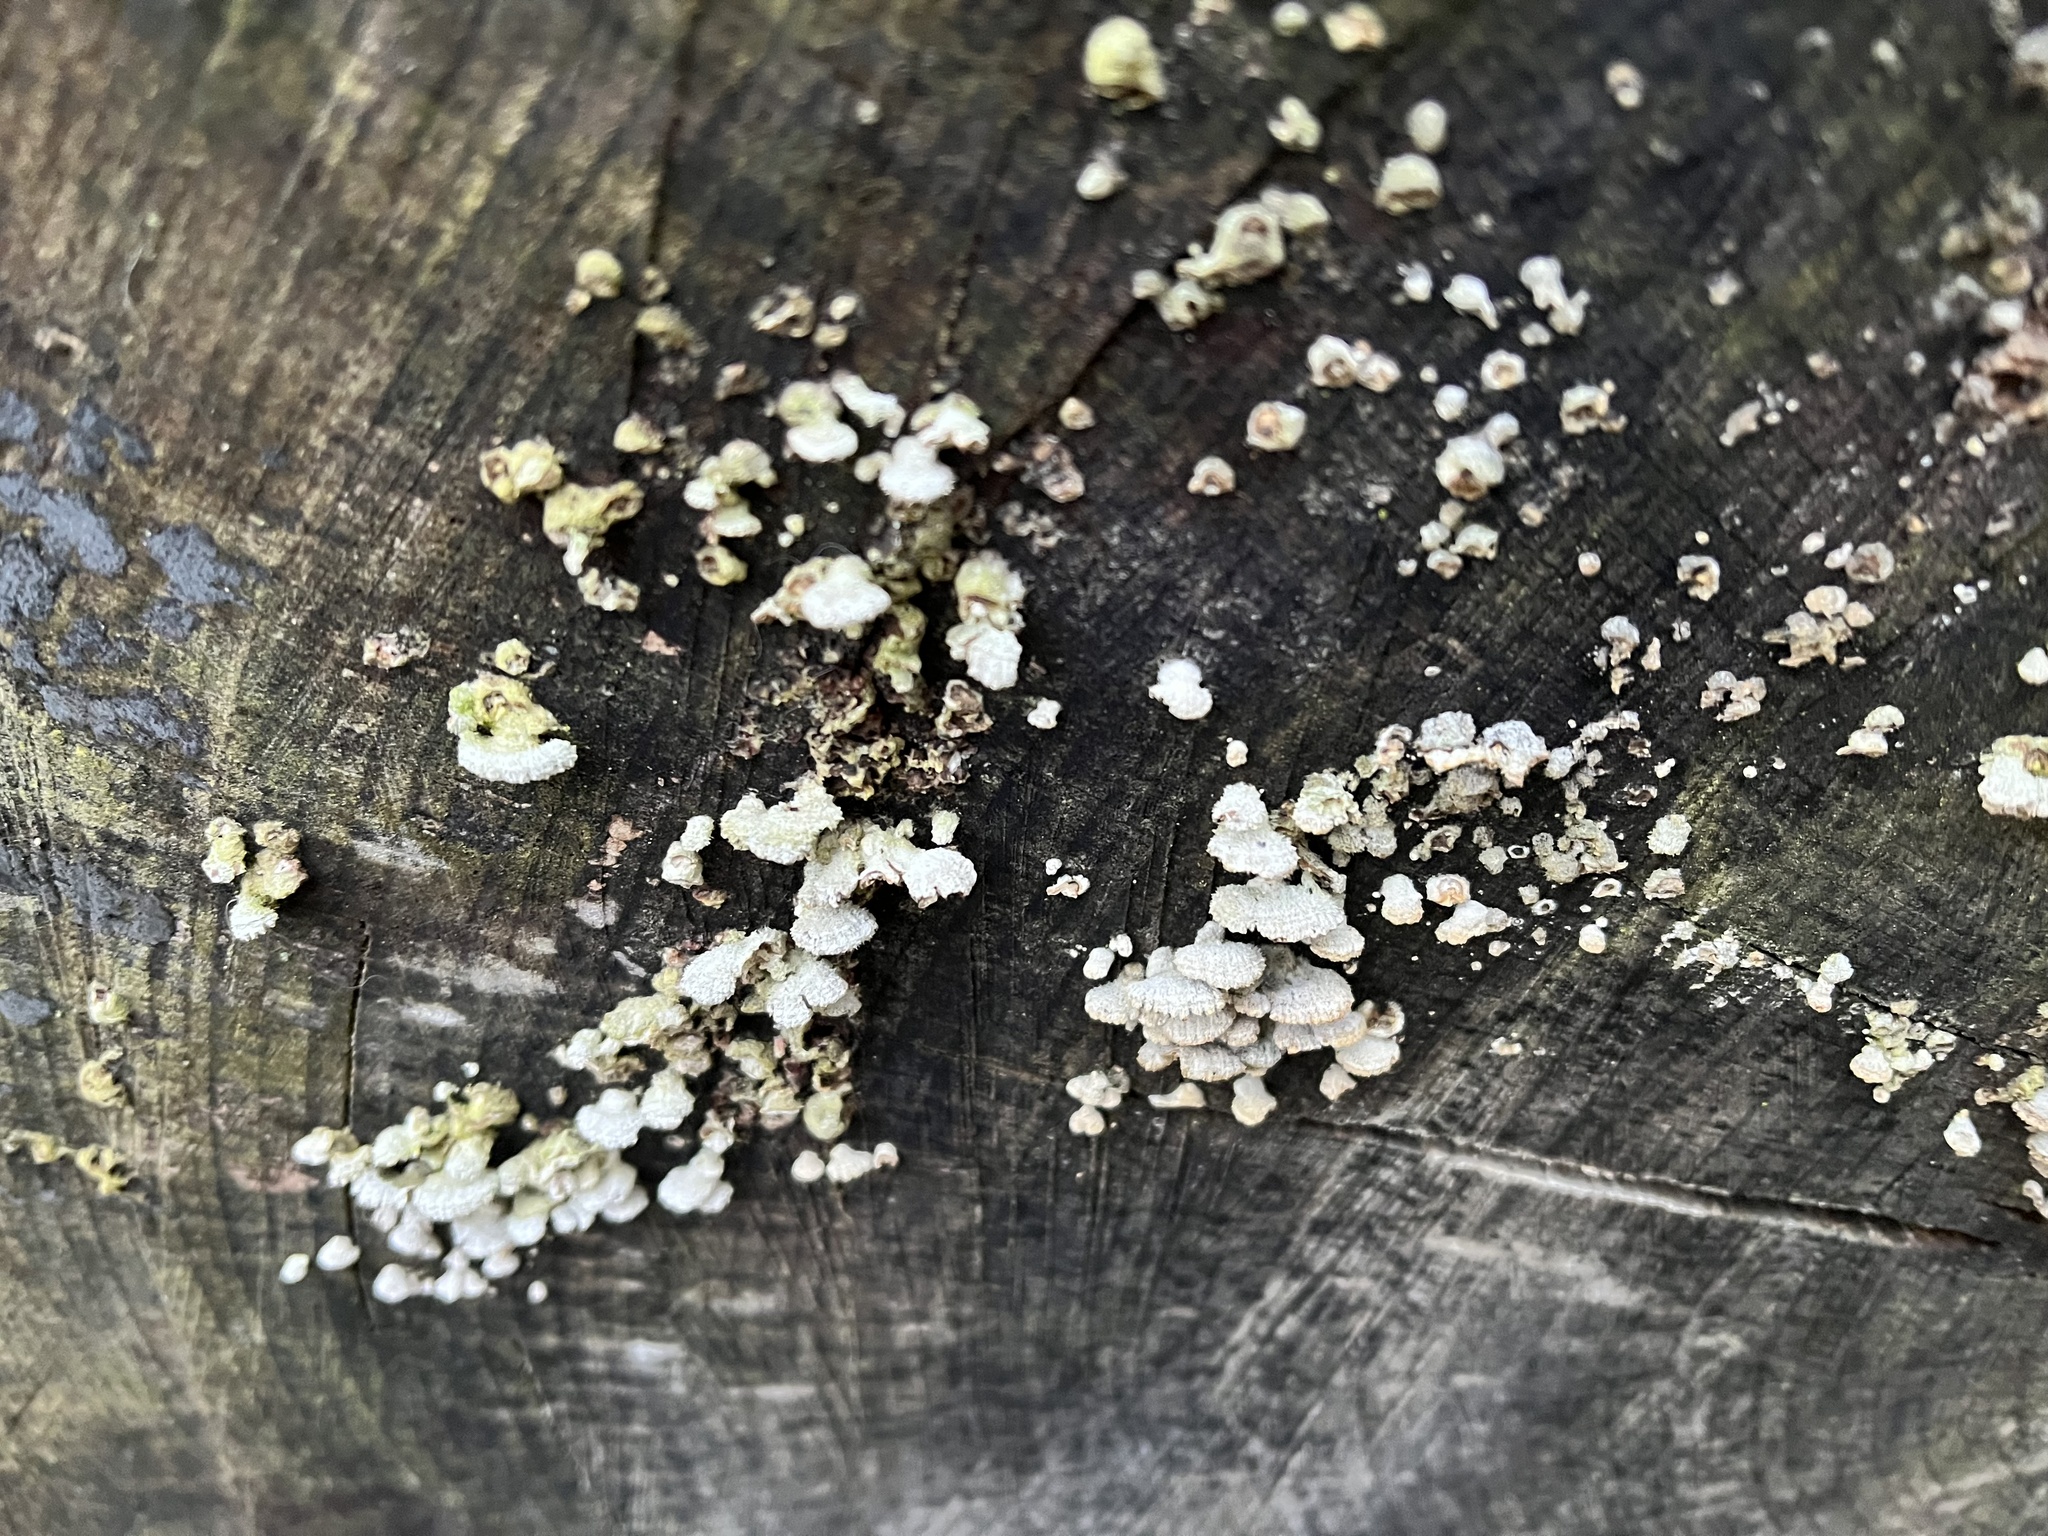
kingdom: Fungi
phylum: Basidiomycota
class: Agaricomycetes
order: Agaricales
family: Schizophyllaceae
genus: Schizophyllum
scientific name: Schizophyllum commune
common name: Common porecrust
